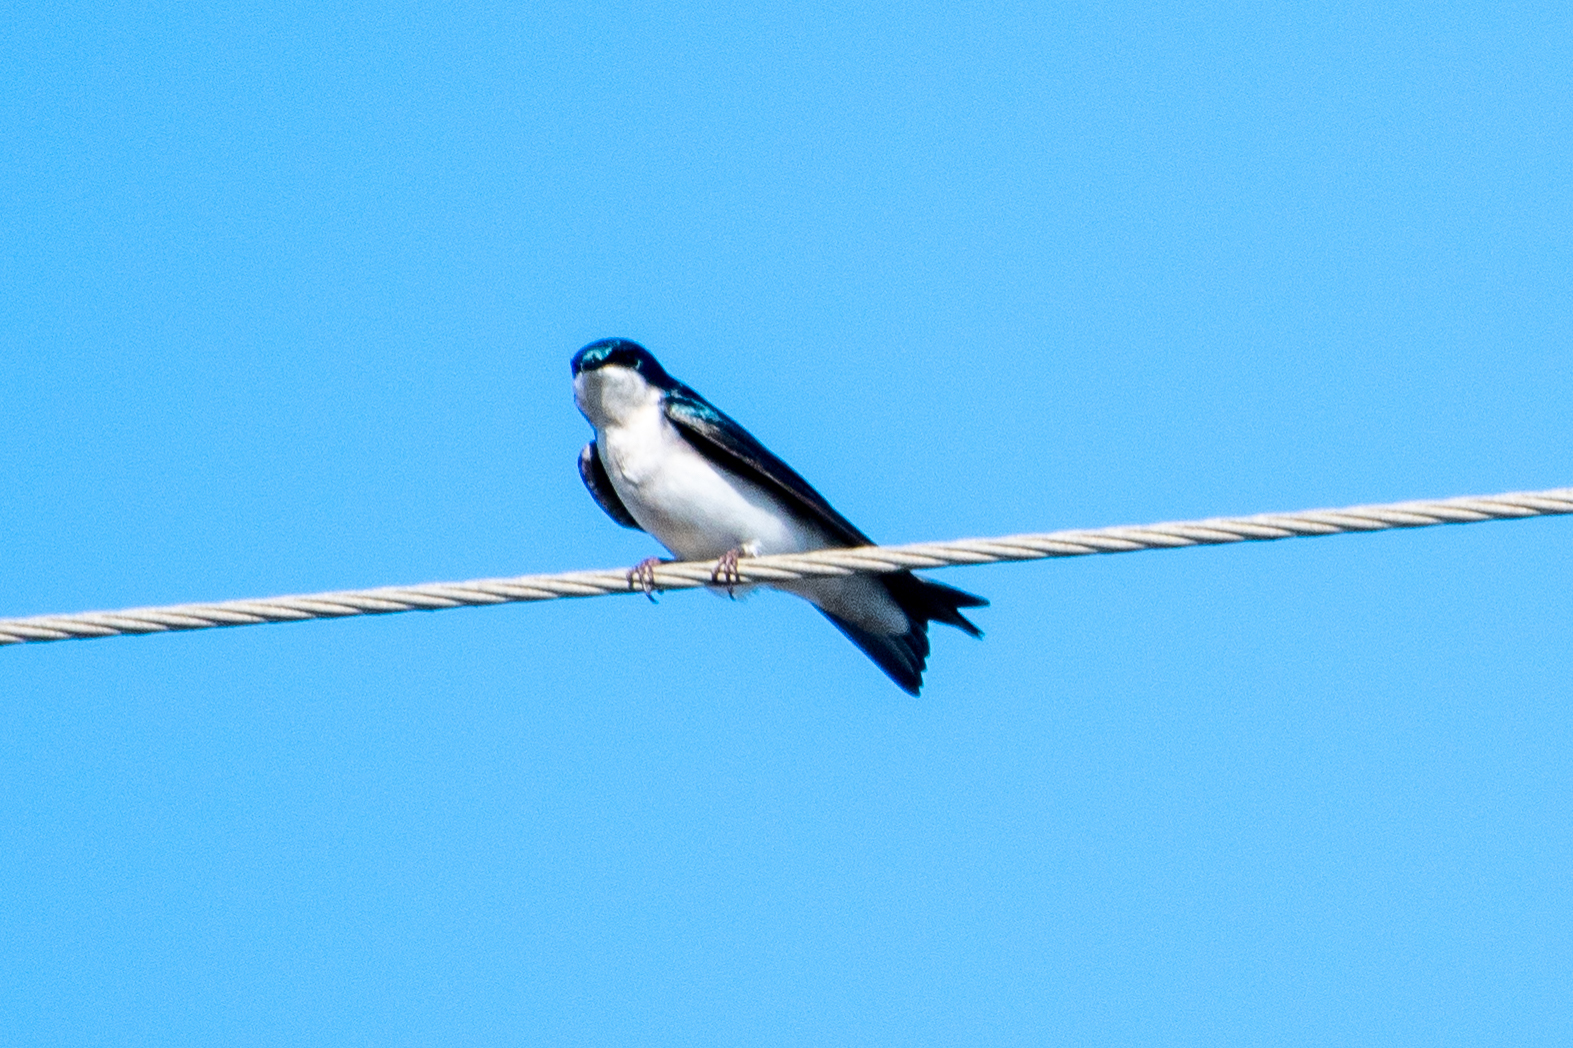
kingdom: Animalia
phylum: Chordata
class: Aves
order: Passeriformes
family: Hirundinidae
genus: Tachycineta
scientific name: Tachycineta bicolor
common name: Tree swallow
